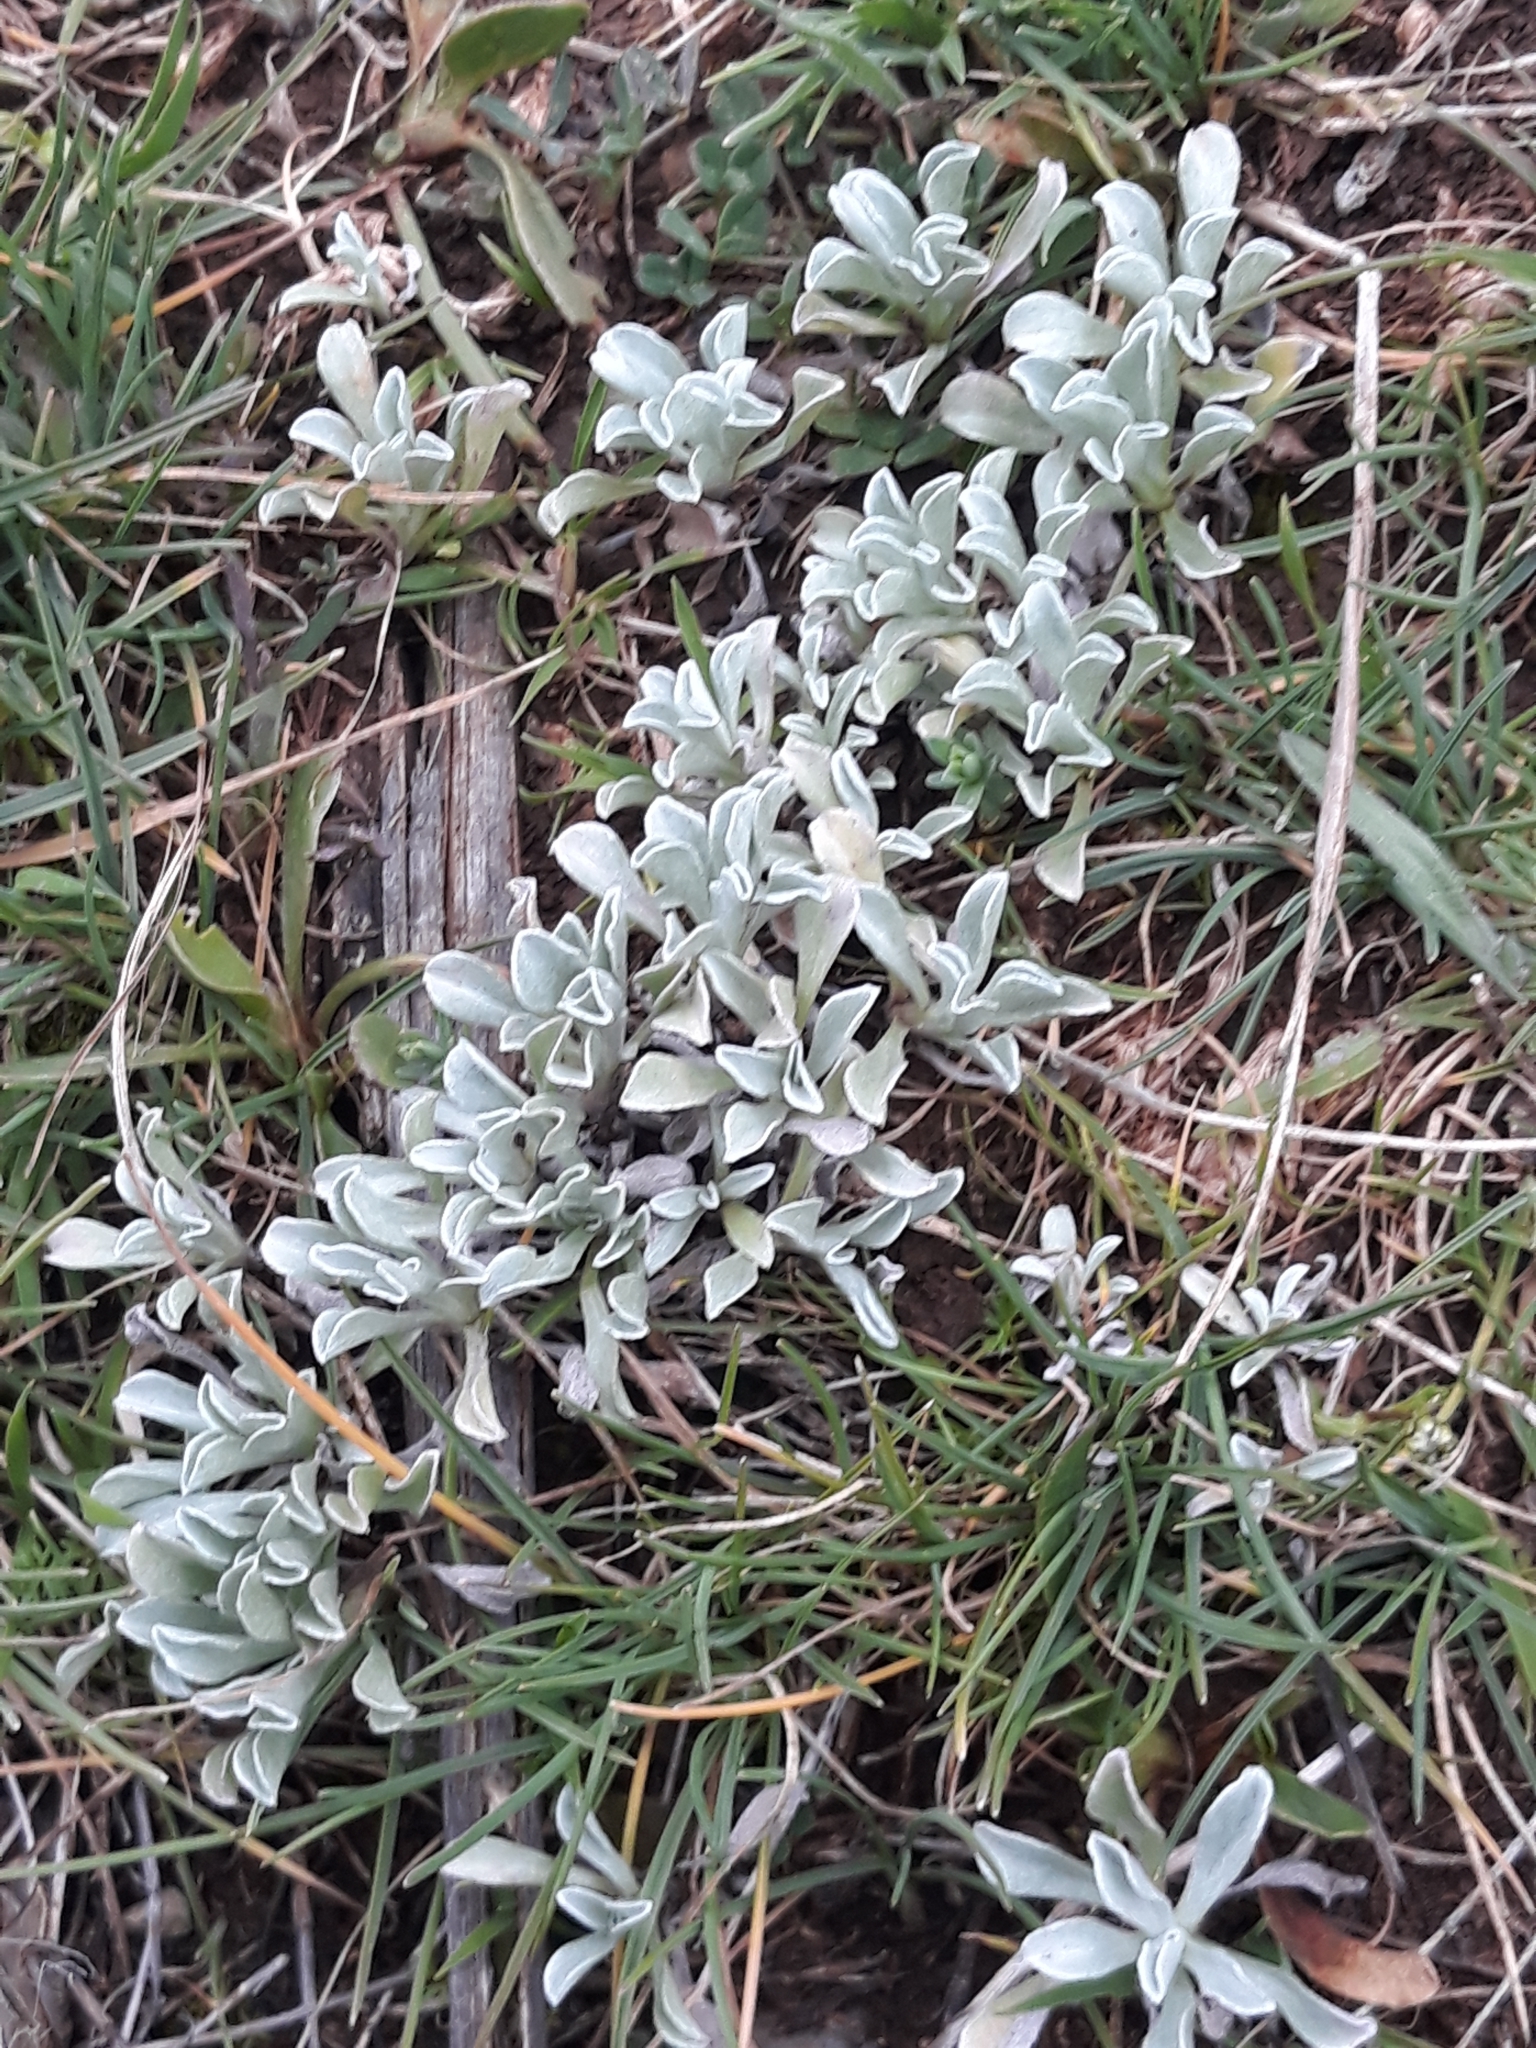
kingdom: Plantae
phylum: Tracheophyta
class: Magnoliopsida
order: Asterales
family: Asteraceae
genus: Micropus
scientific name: Micropus supinus
